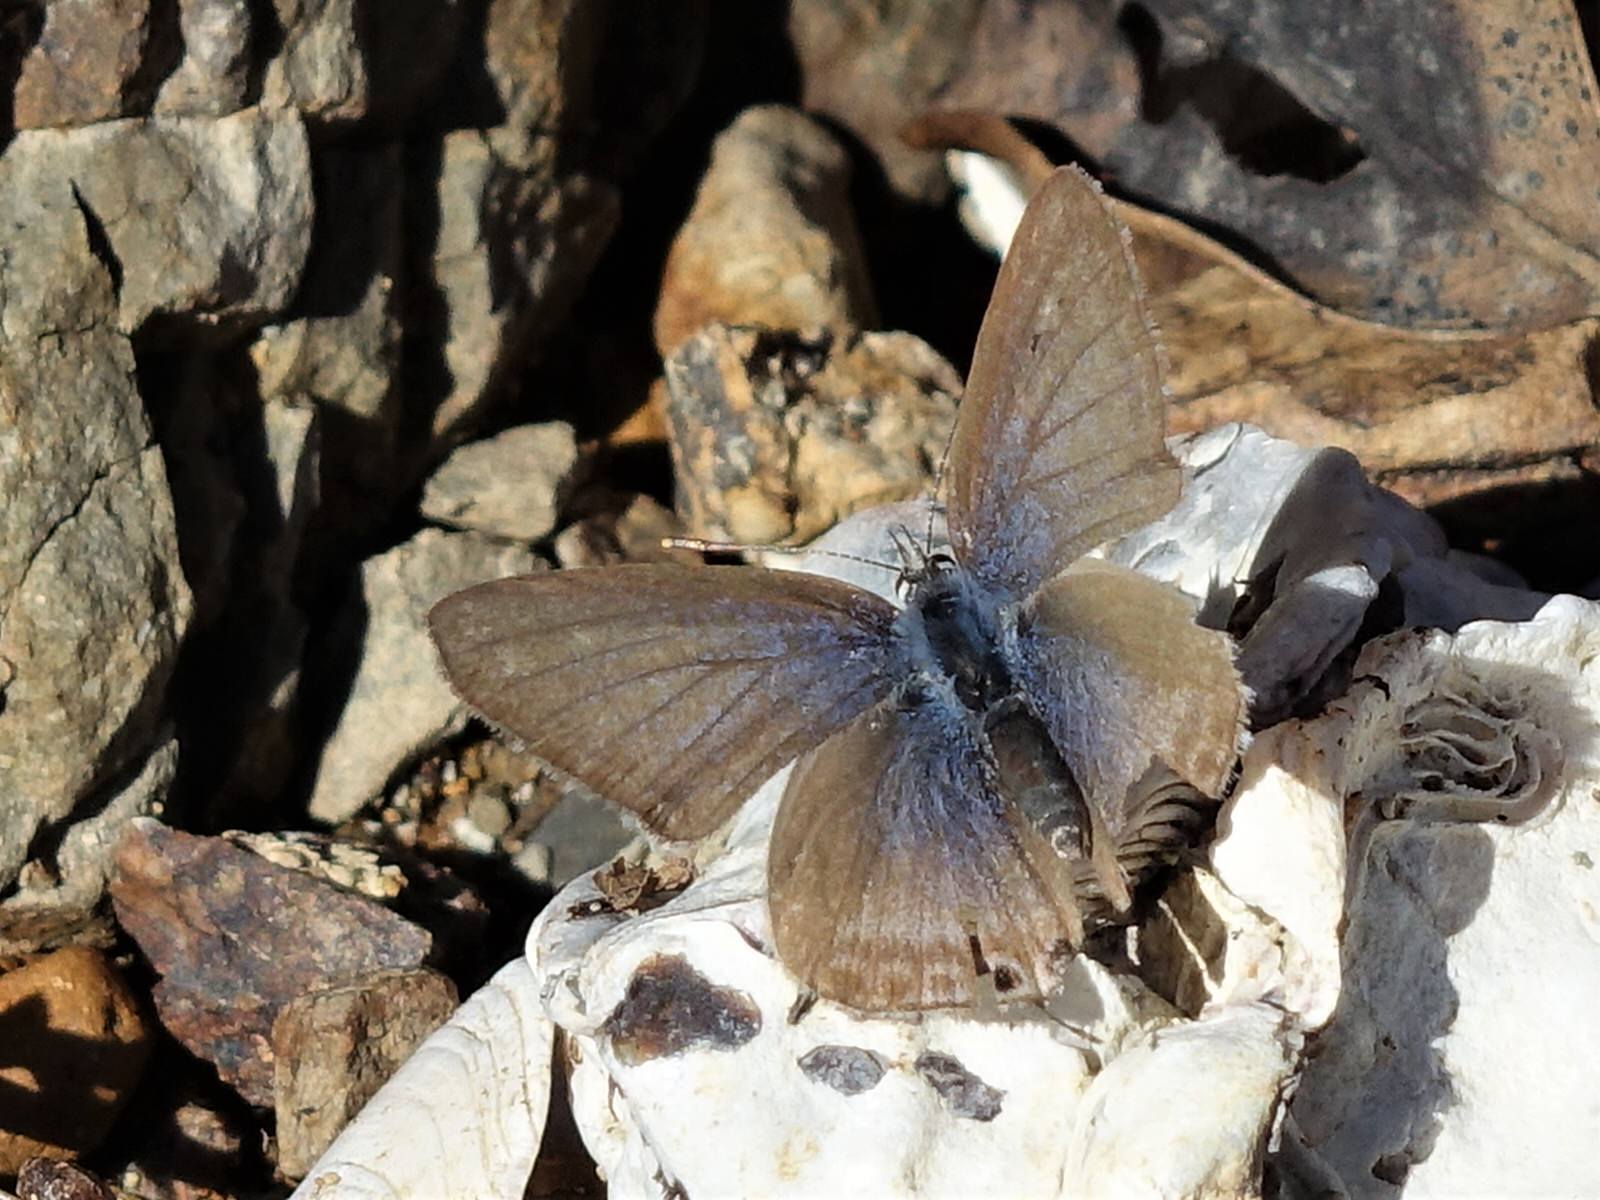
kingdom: Animalia
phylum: Arthropoda
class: Insecta
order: Lepidoptera
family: Lycaenidae
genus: Lampides
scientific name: Lampides boeticus
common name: Long-tailed blue
